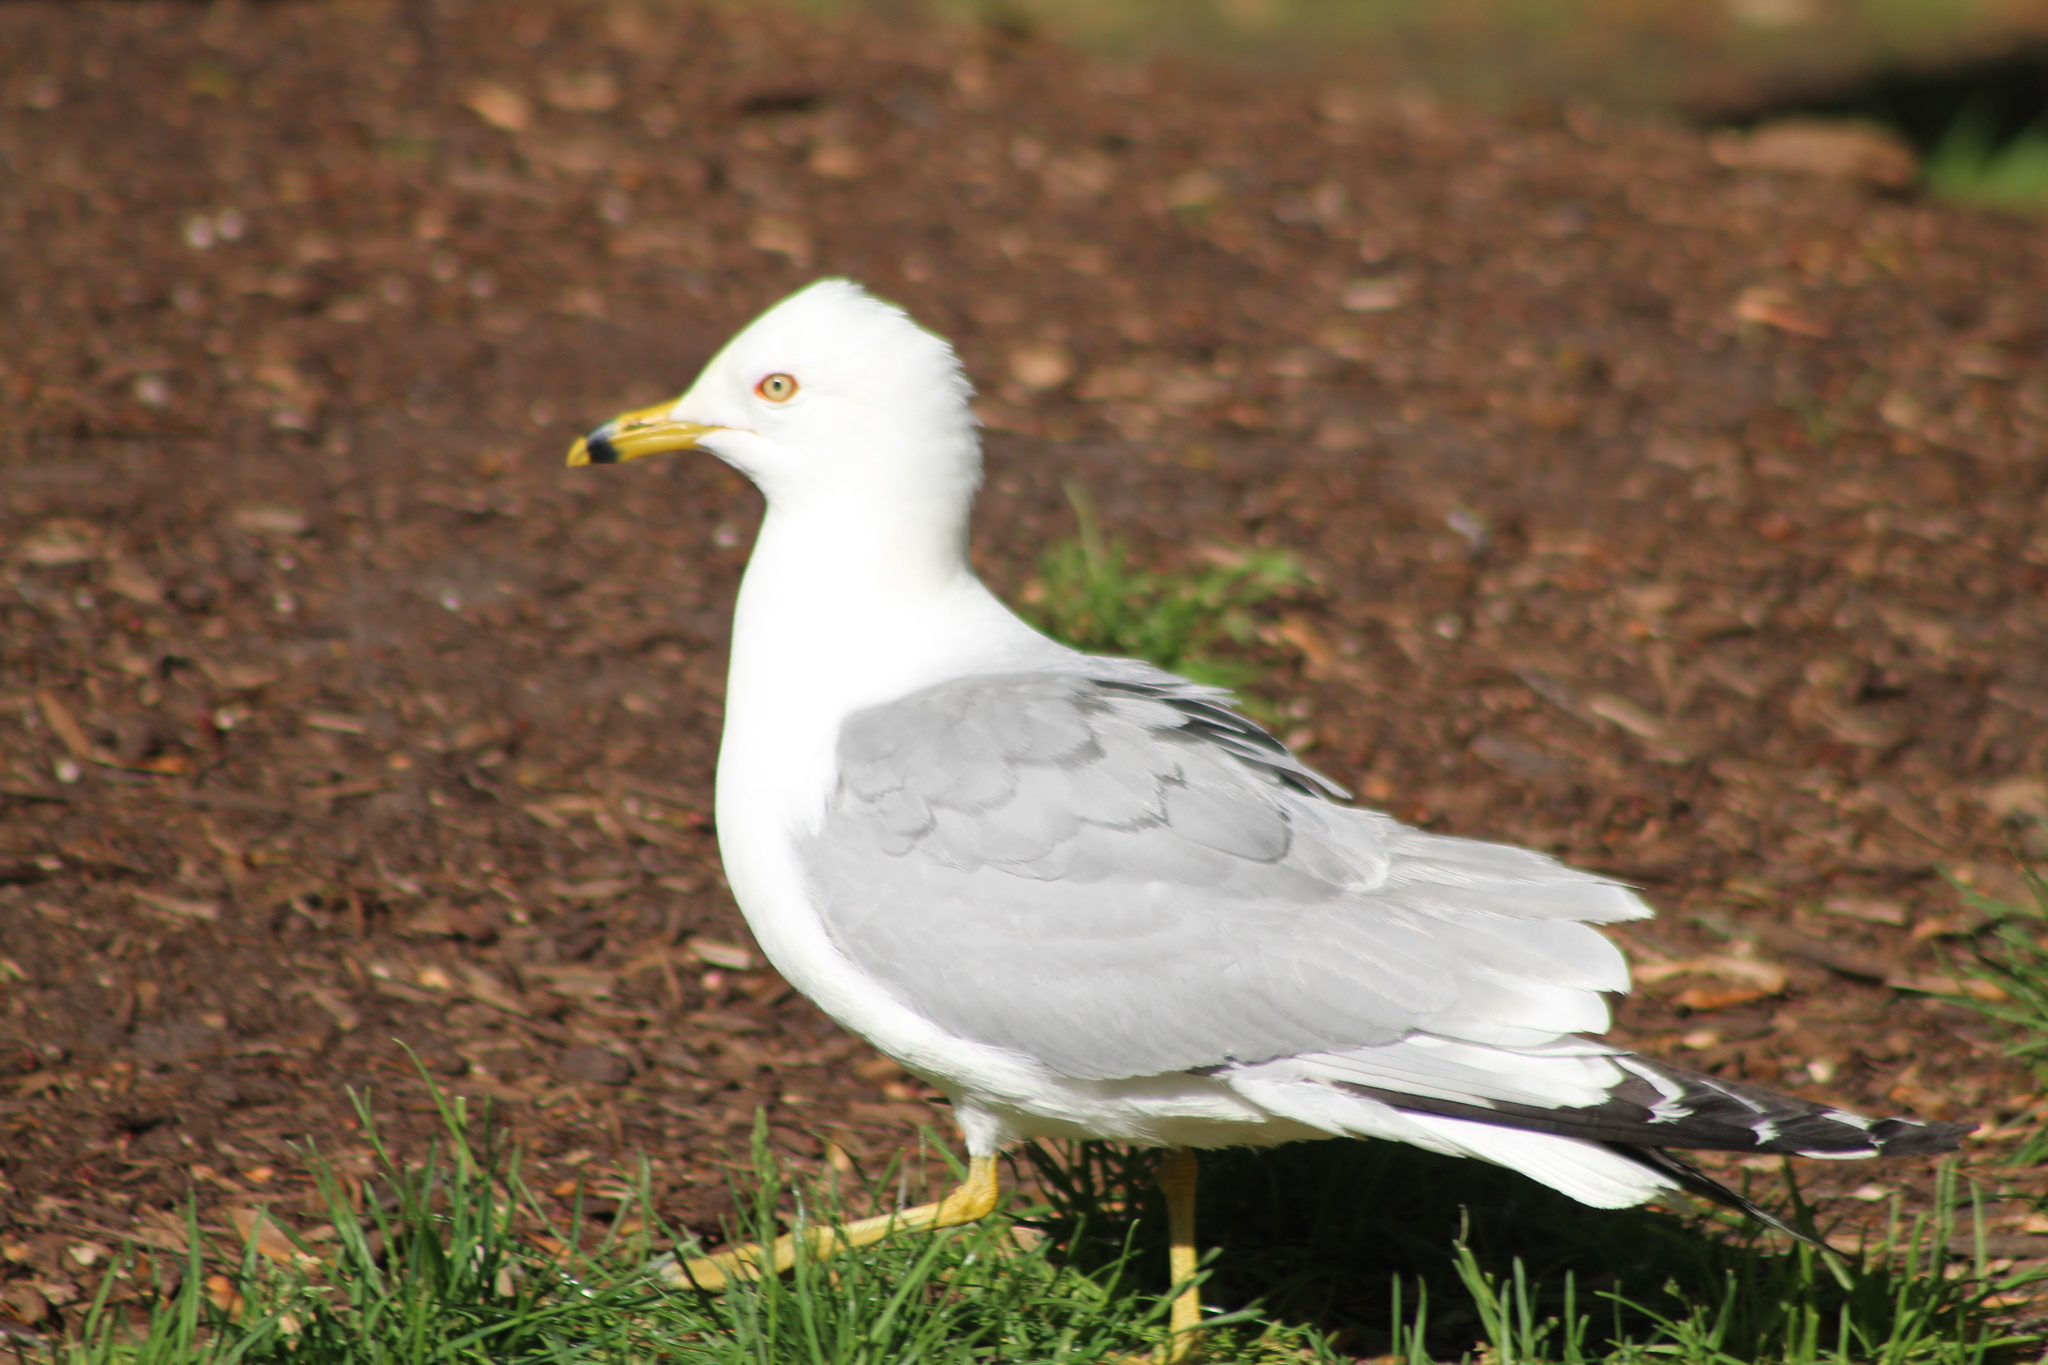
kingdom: Animalia
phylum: Chordata
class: Aves
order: Charadriiformes
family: Laridae
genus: Larus
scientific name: Larus delawarensis
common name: Ring-billed gull
